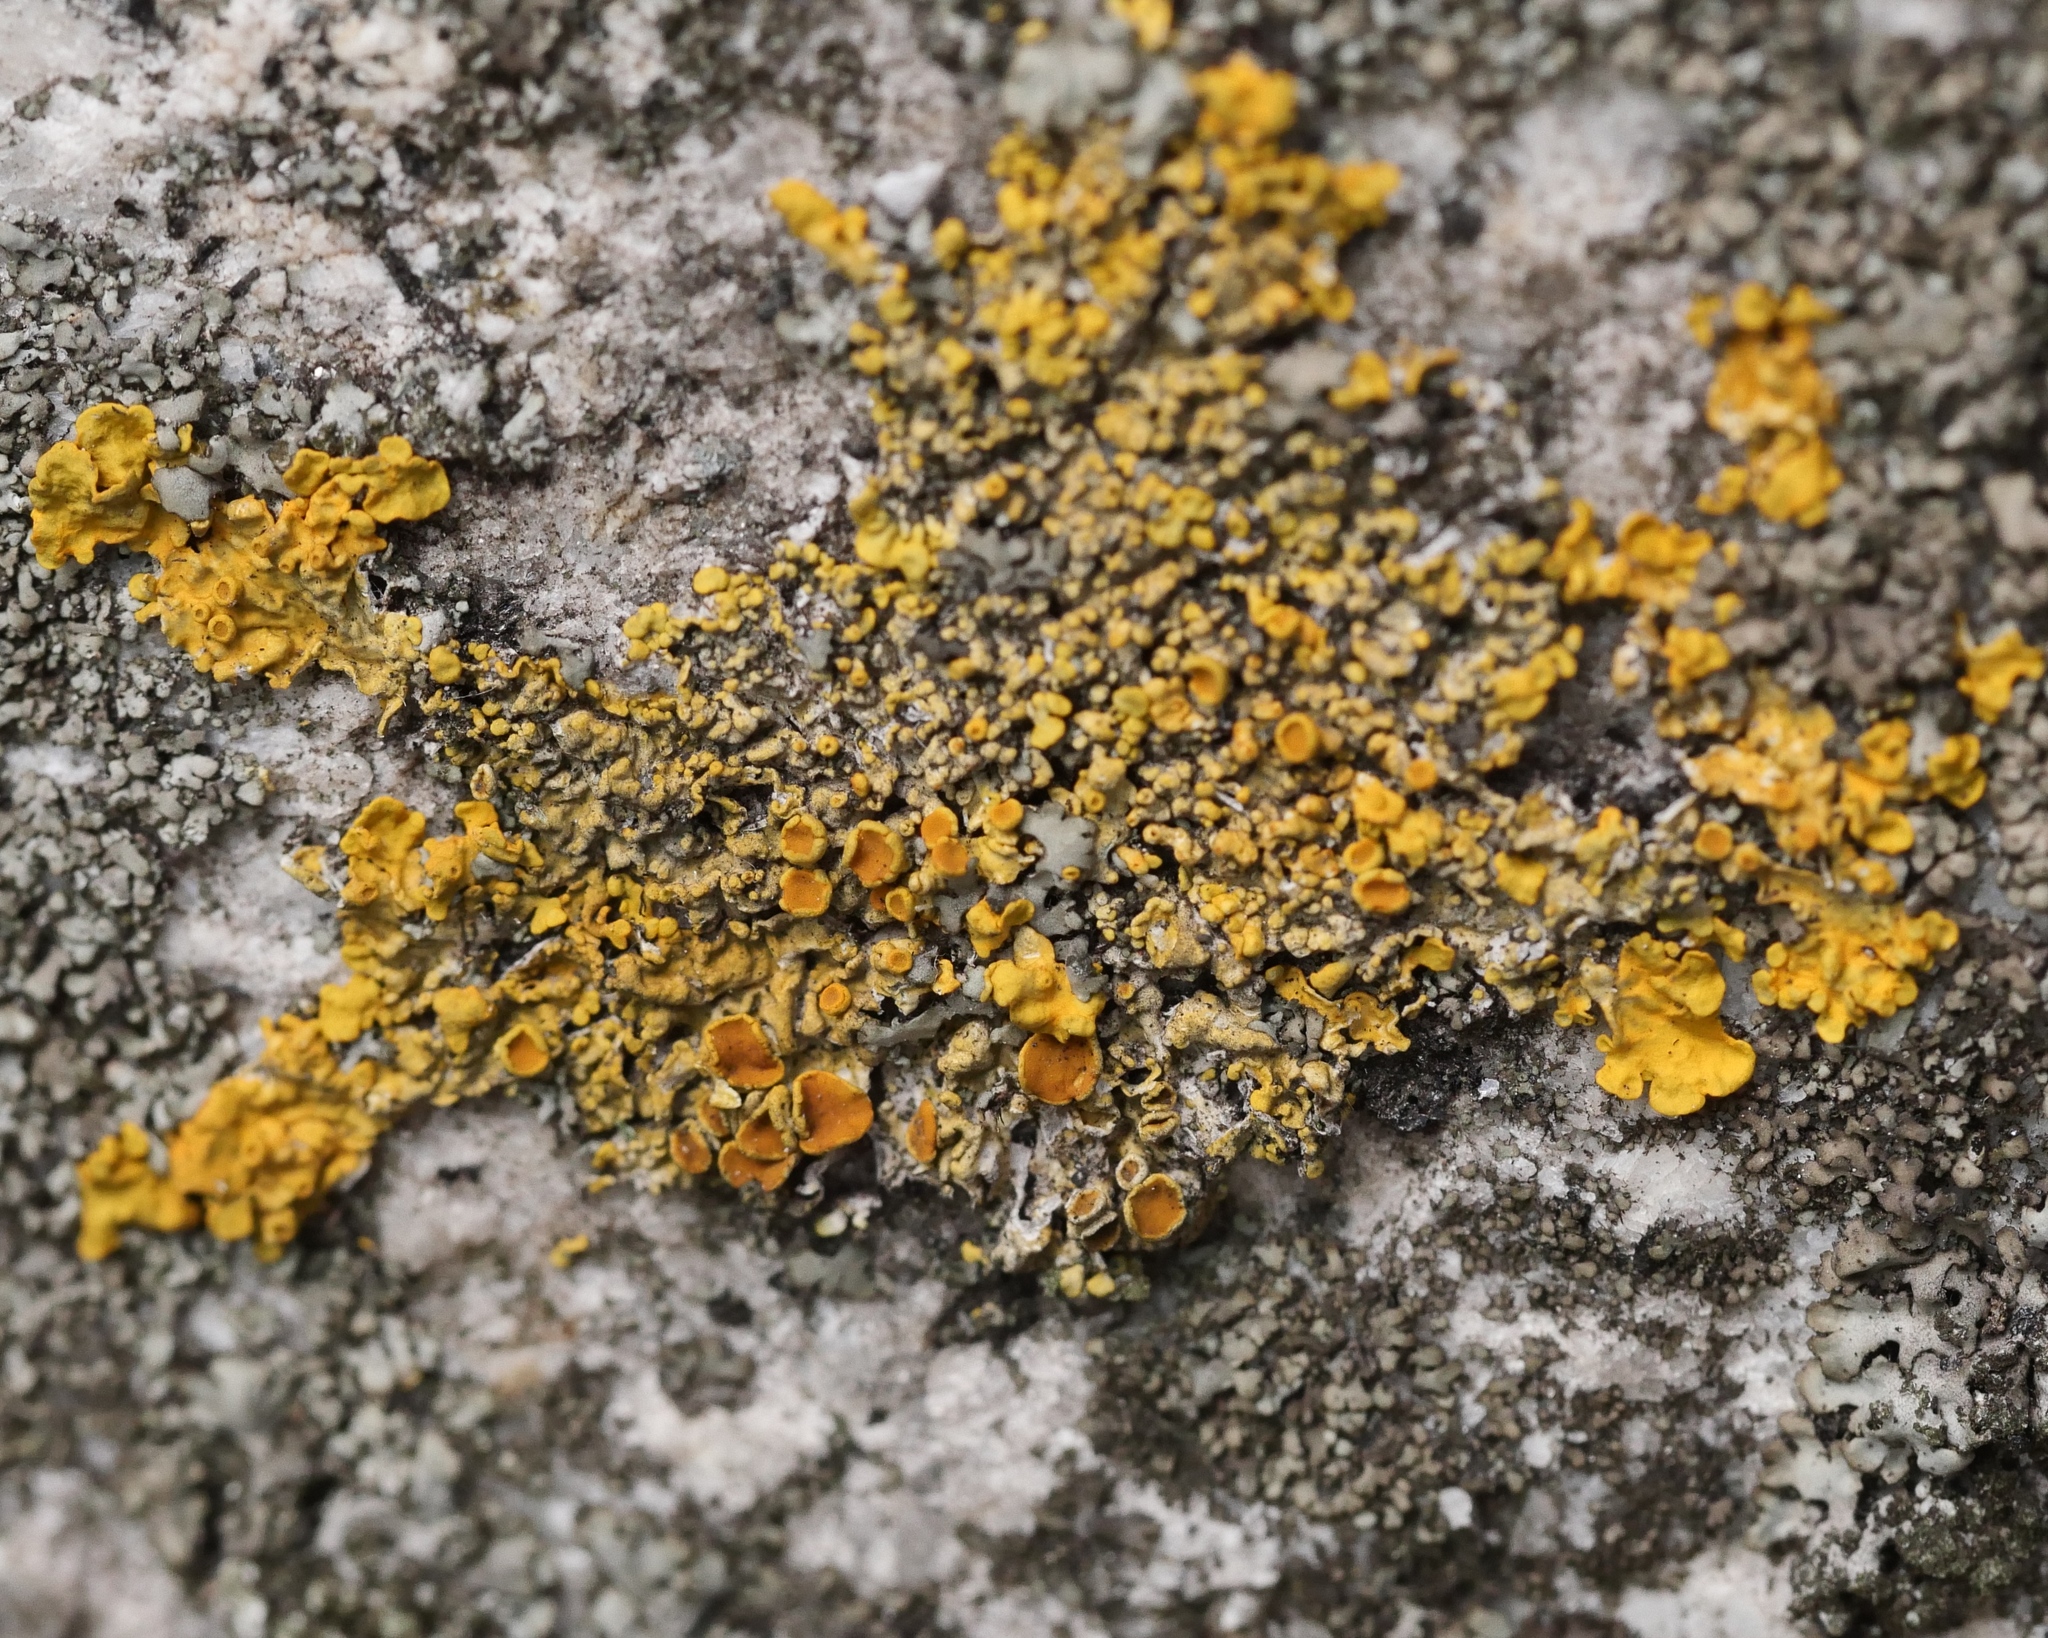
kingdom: Fungi
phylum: Ascomycota
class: Lecanoromycetes
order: Teloschistales
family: Teloschistaceae
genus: Xanthoria
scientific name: Xanthoria parietina
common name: Common orange lichen
